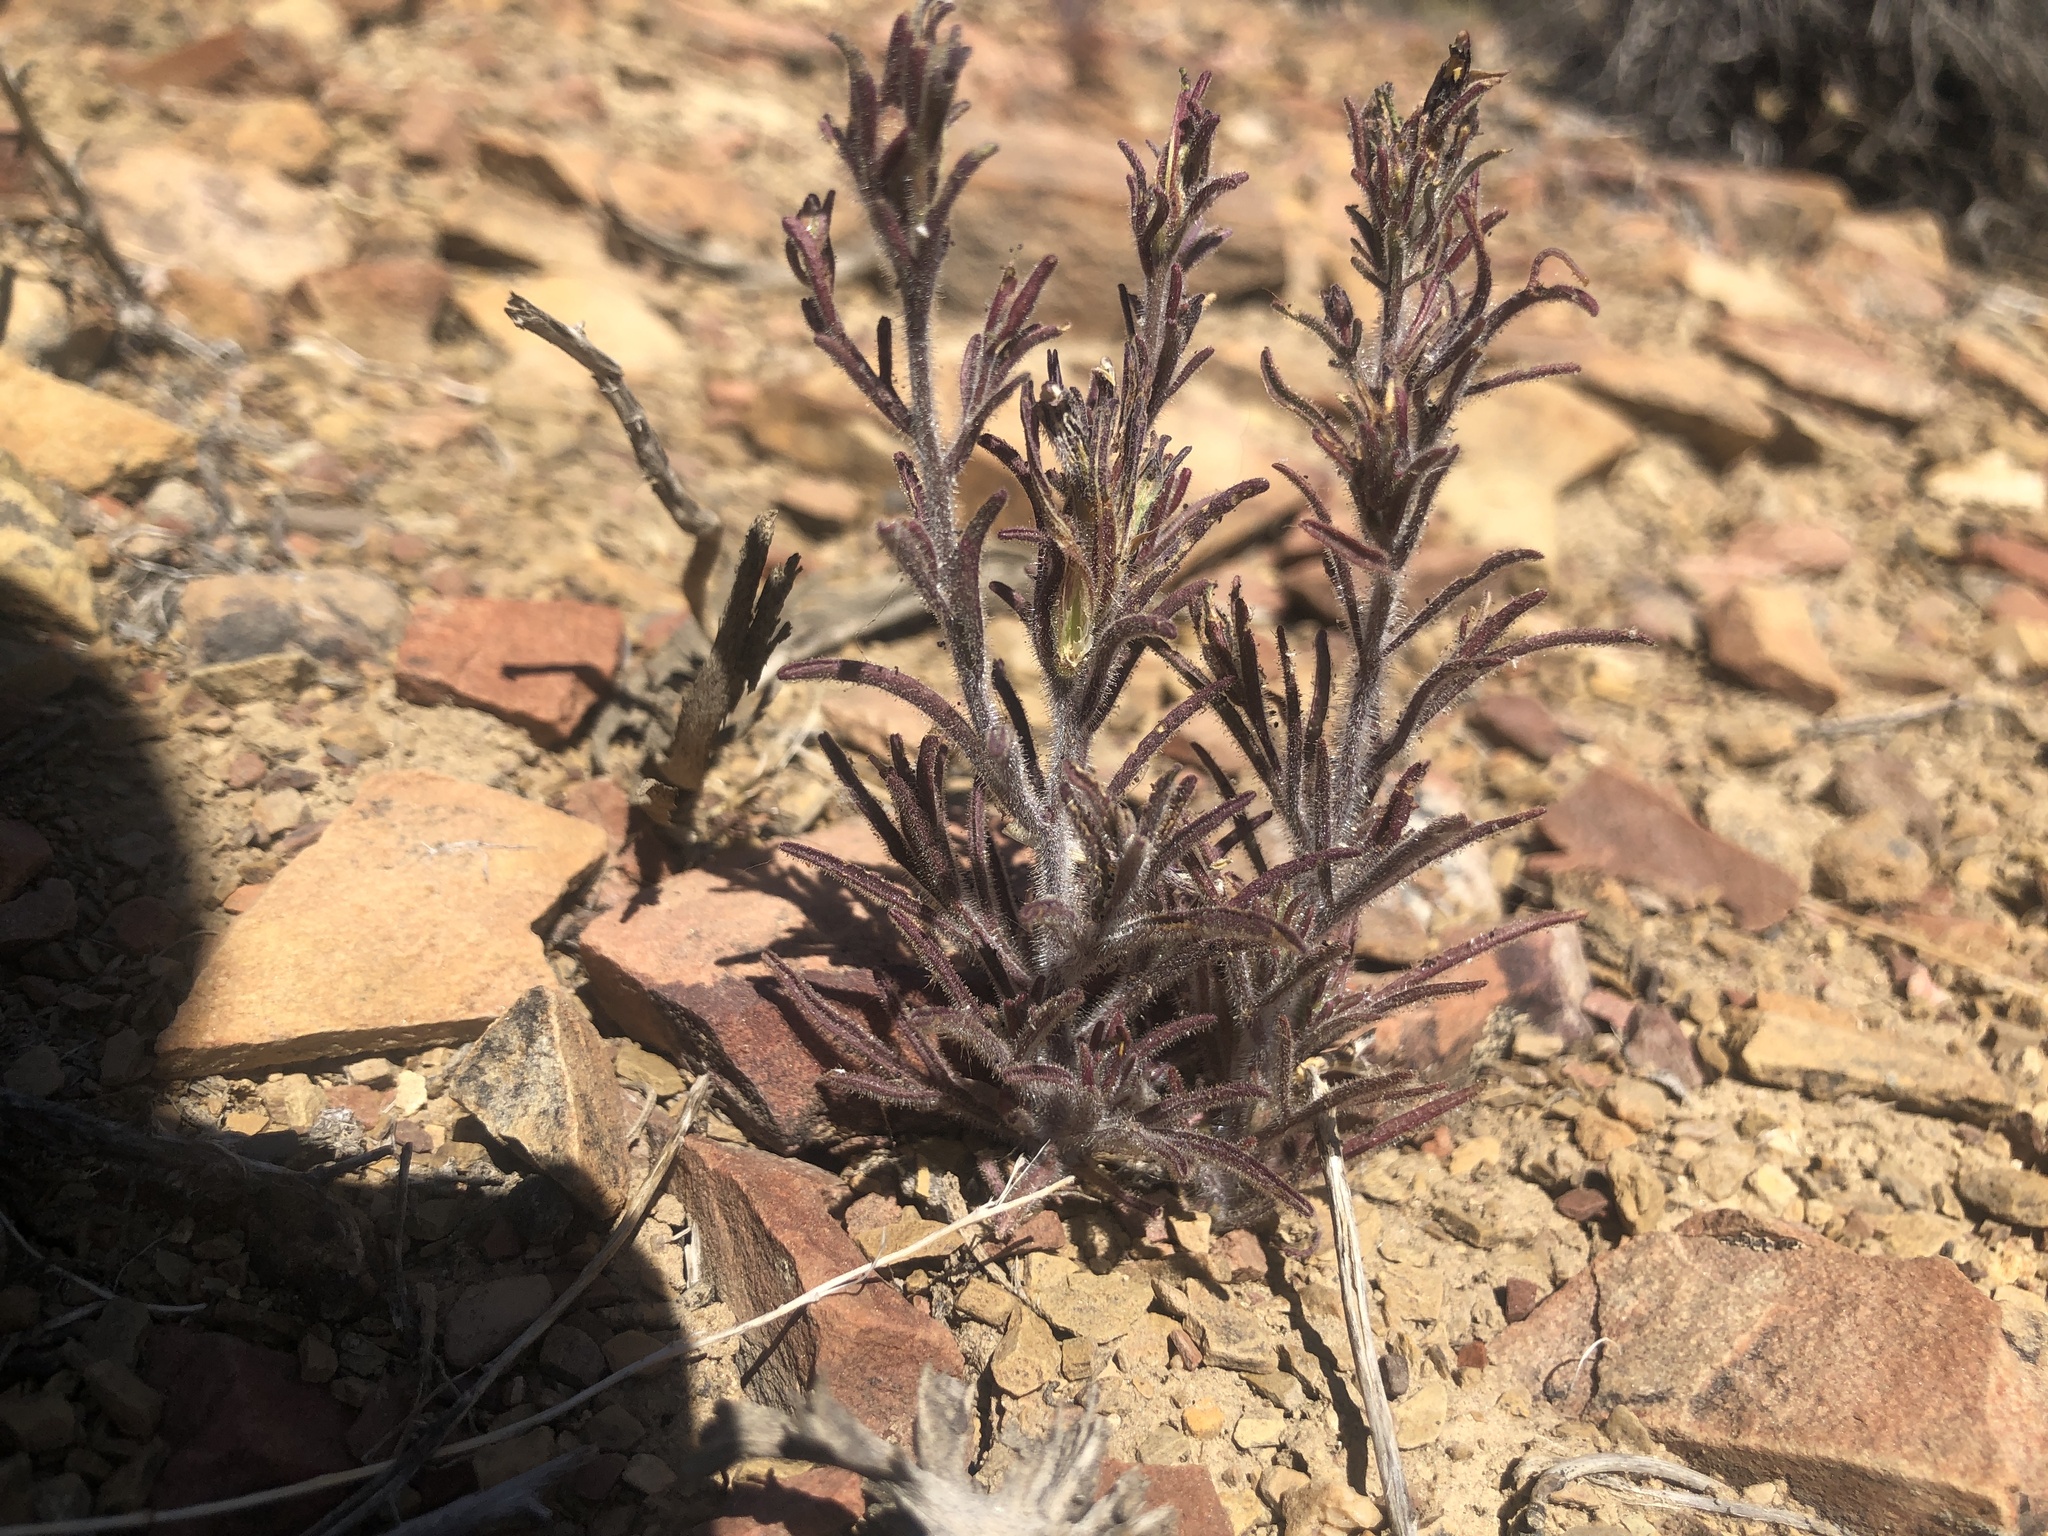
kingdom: Plantae
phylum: Tracheophyta
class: Magnoliopsida
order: Lamiales
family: Orobanchaceae
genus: Cordylanthus
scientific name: Cordylanthus kingii
